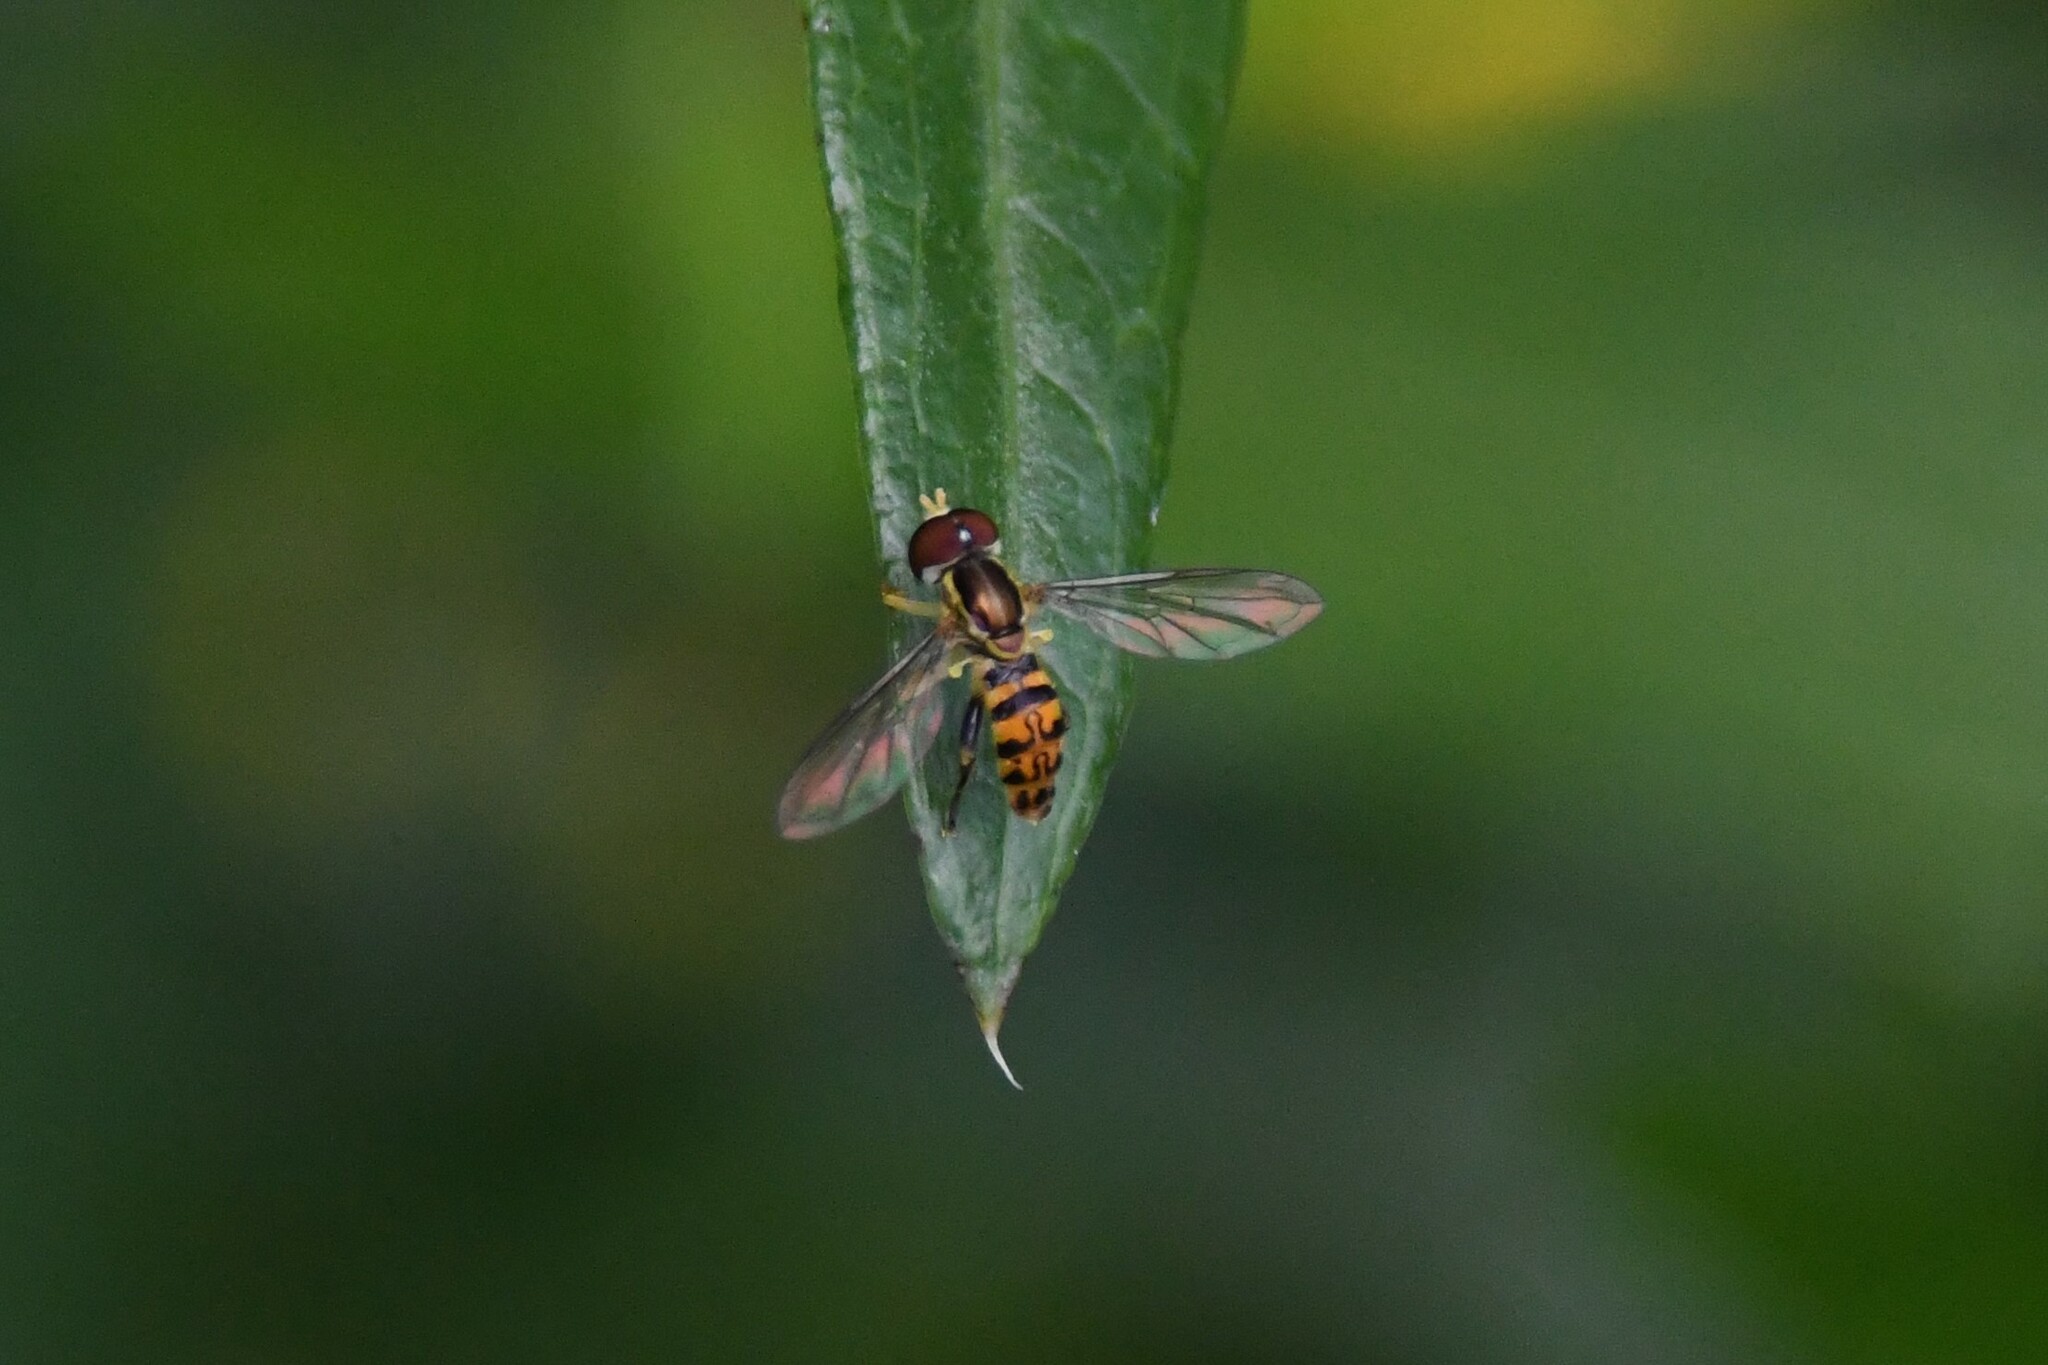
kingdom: Animalia
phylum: Arthropoda
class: Insecta
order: Diptera
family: Syrphidae
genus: Toxomerus
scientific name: Toxomerus geminatus
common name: Eastern calligrapher
